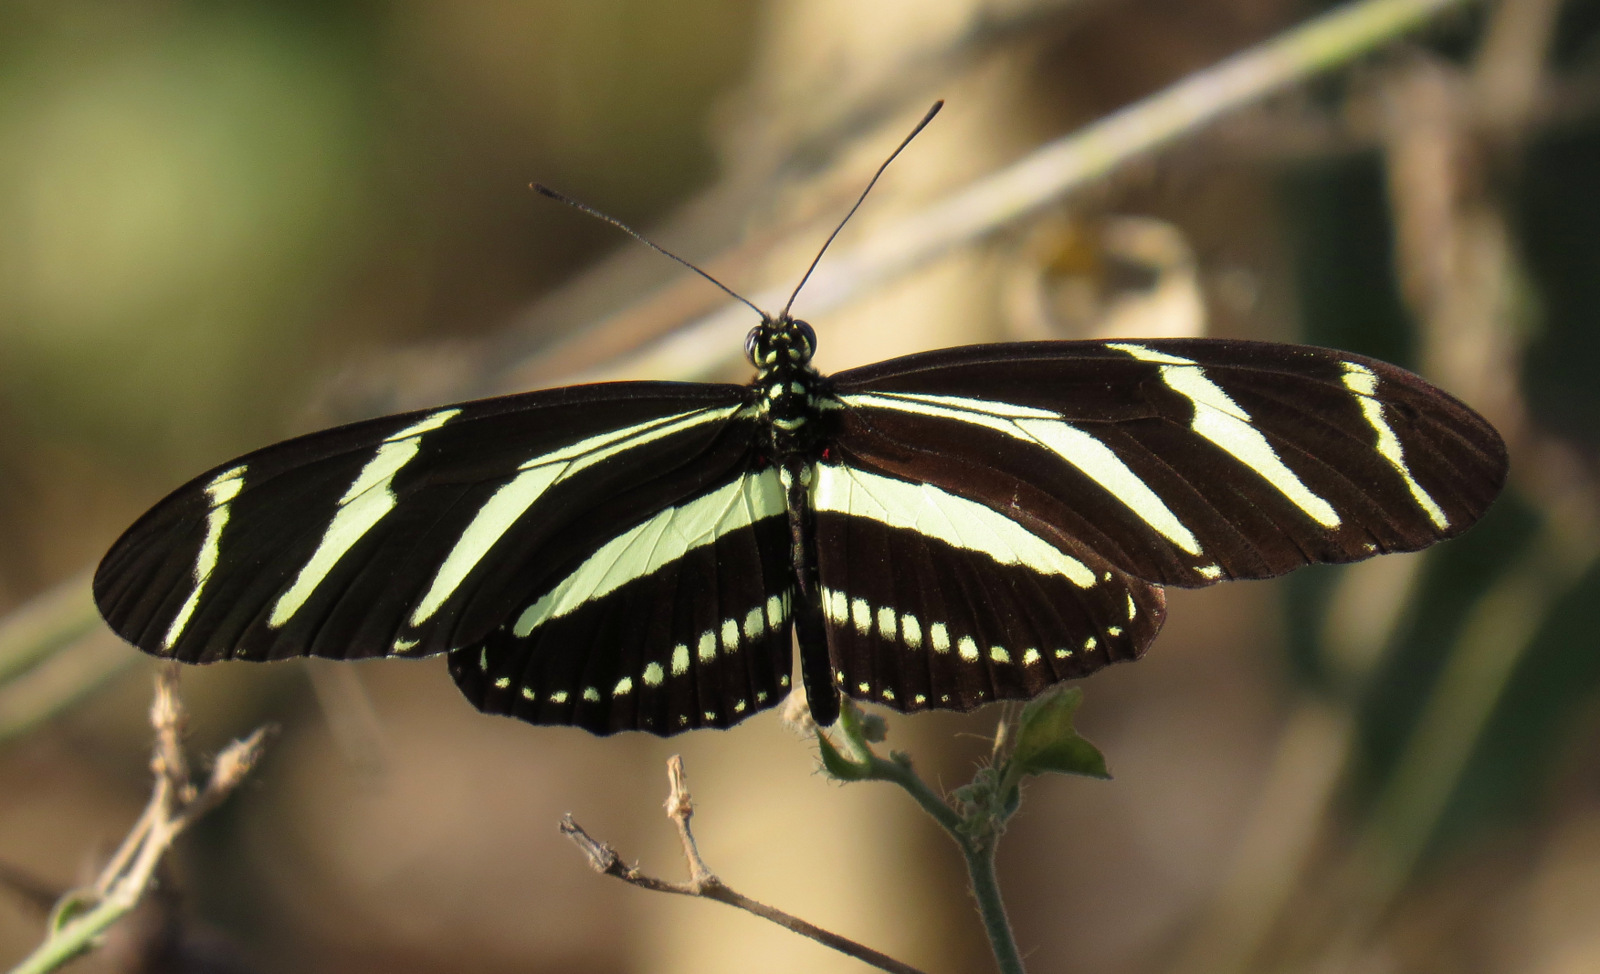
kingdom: Animalia
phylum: Arthropoda
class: Insecta
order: Lepidoptera
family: Nymphalidae
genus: Heliconius
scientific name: Heliconius charithonia
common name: Zebra long wing
